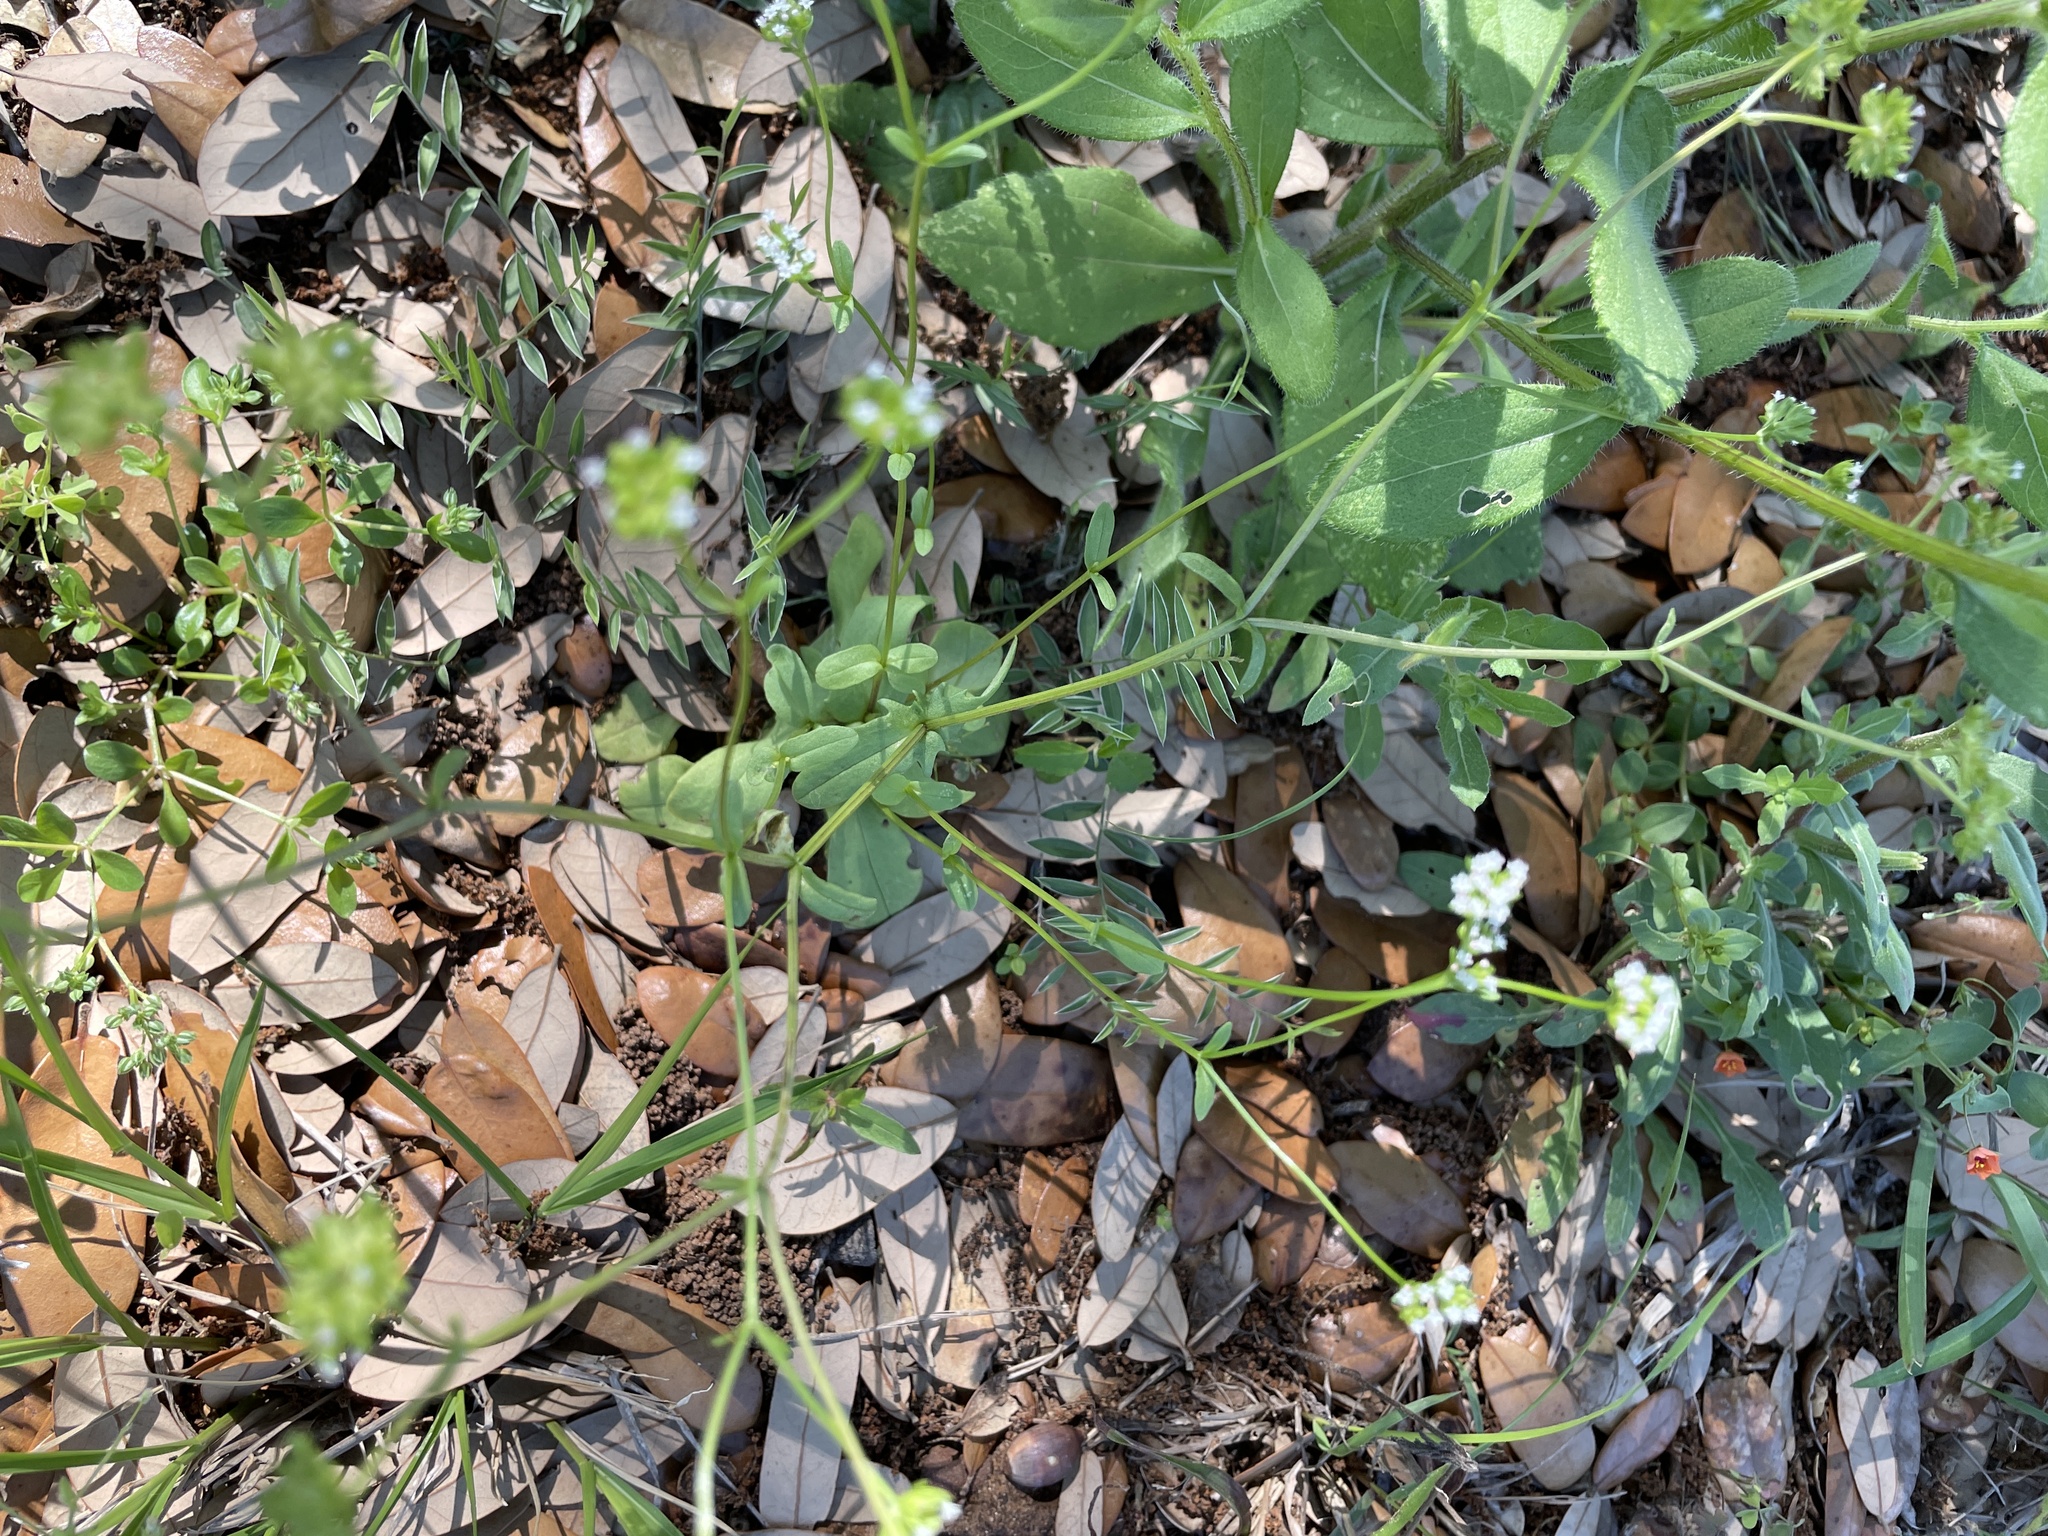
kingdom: Plantae
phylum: Tracheophyta
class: Magnoliopsida
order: Dipsacales
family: Caprifoliaceae
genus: Valerianella
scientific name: Valerianella radiata
